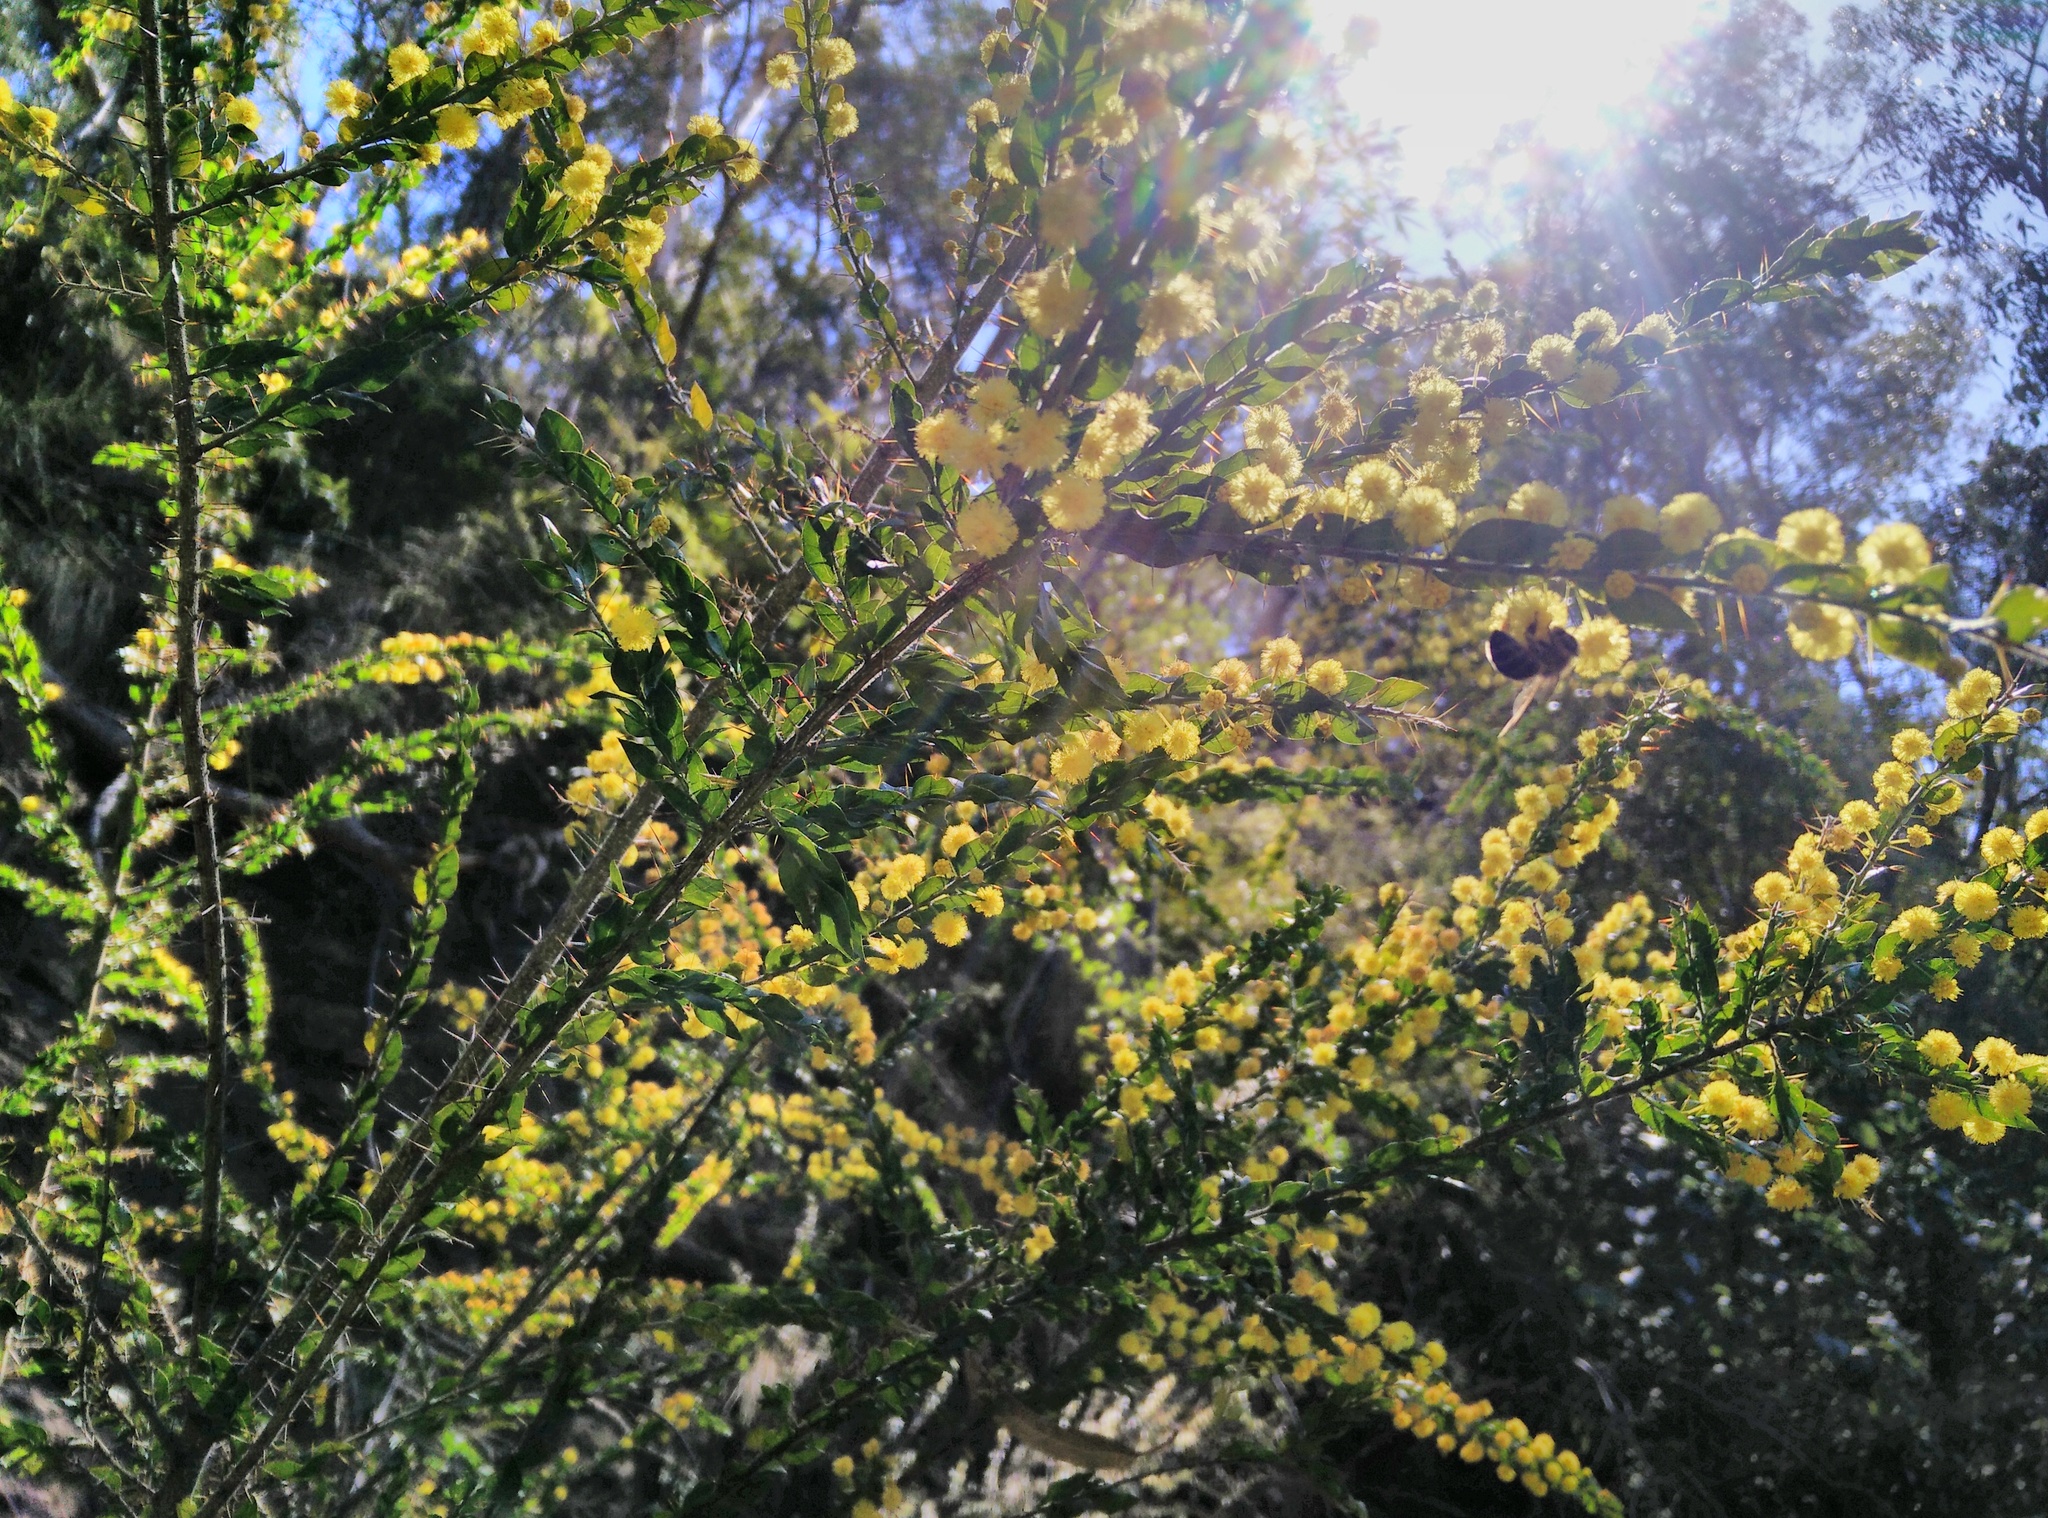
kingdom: Plantae
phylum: Tracheophyta
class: Magnoliopsida
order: Fabales
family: Fabaceae
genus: Acacia
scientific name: Acacia paradoxa
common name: Paradox acacia
